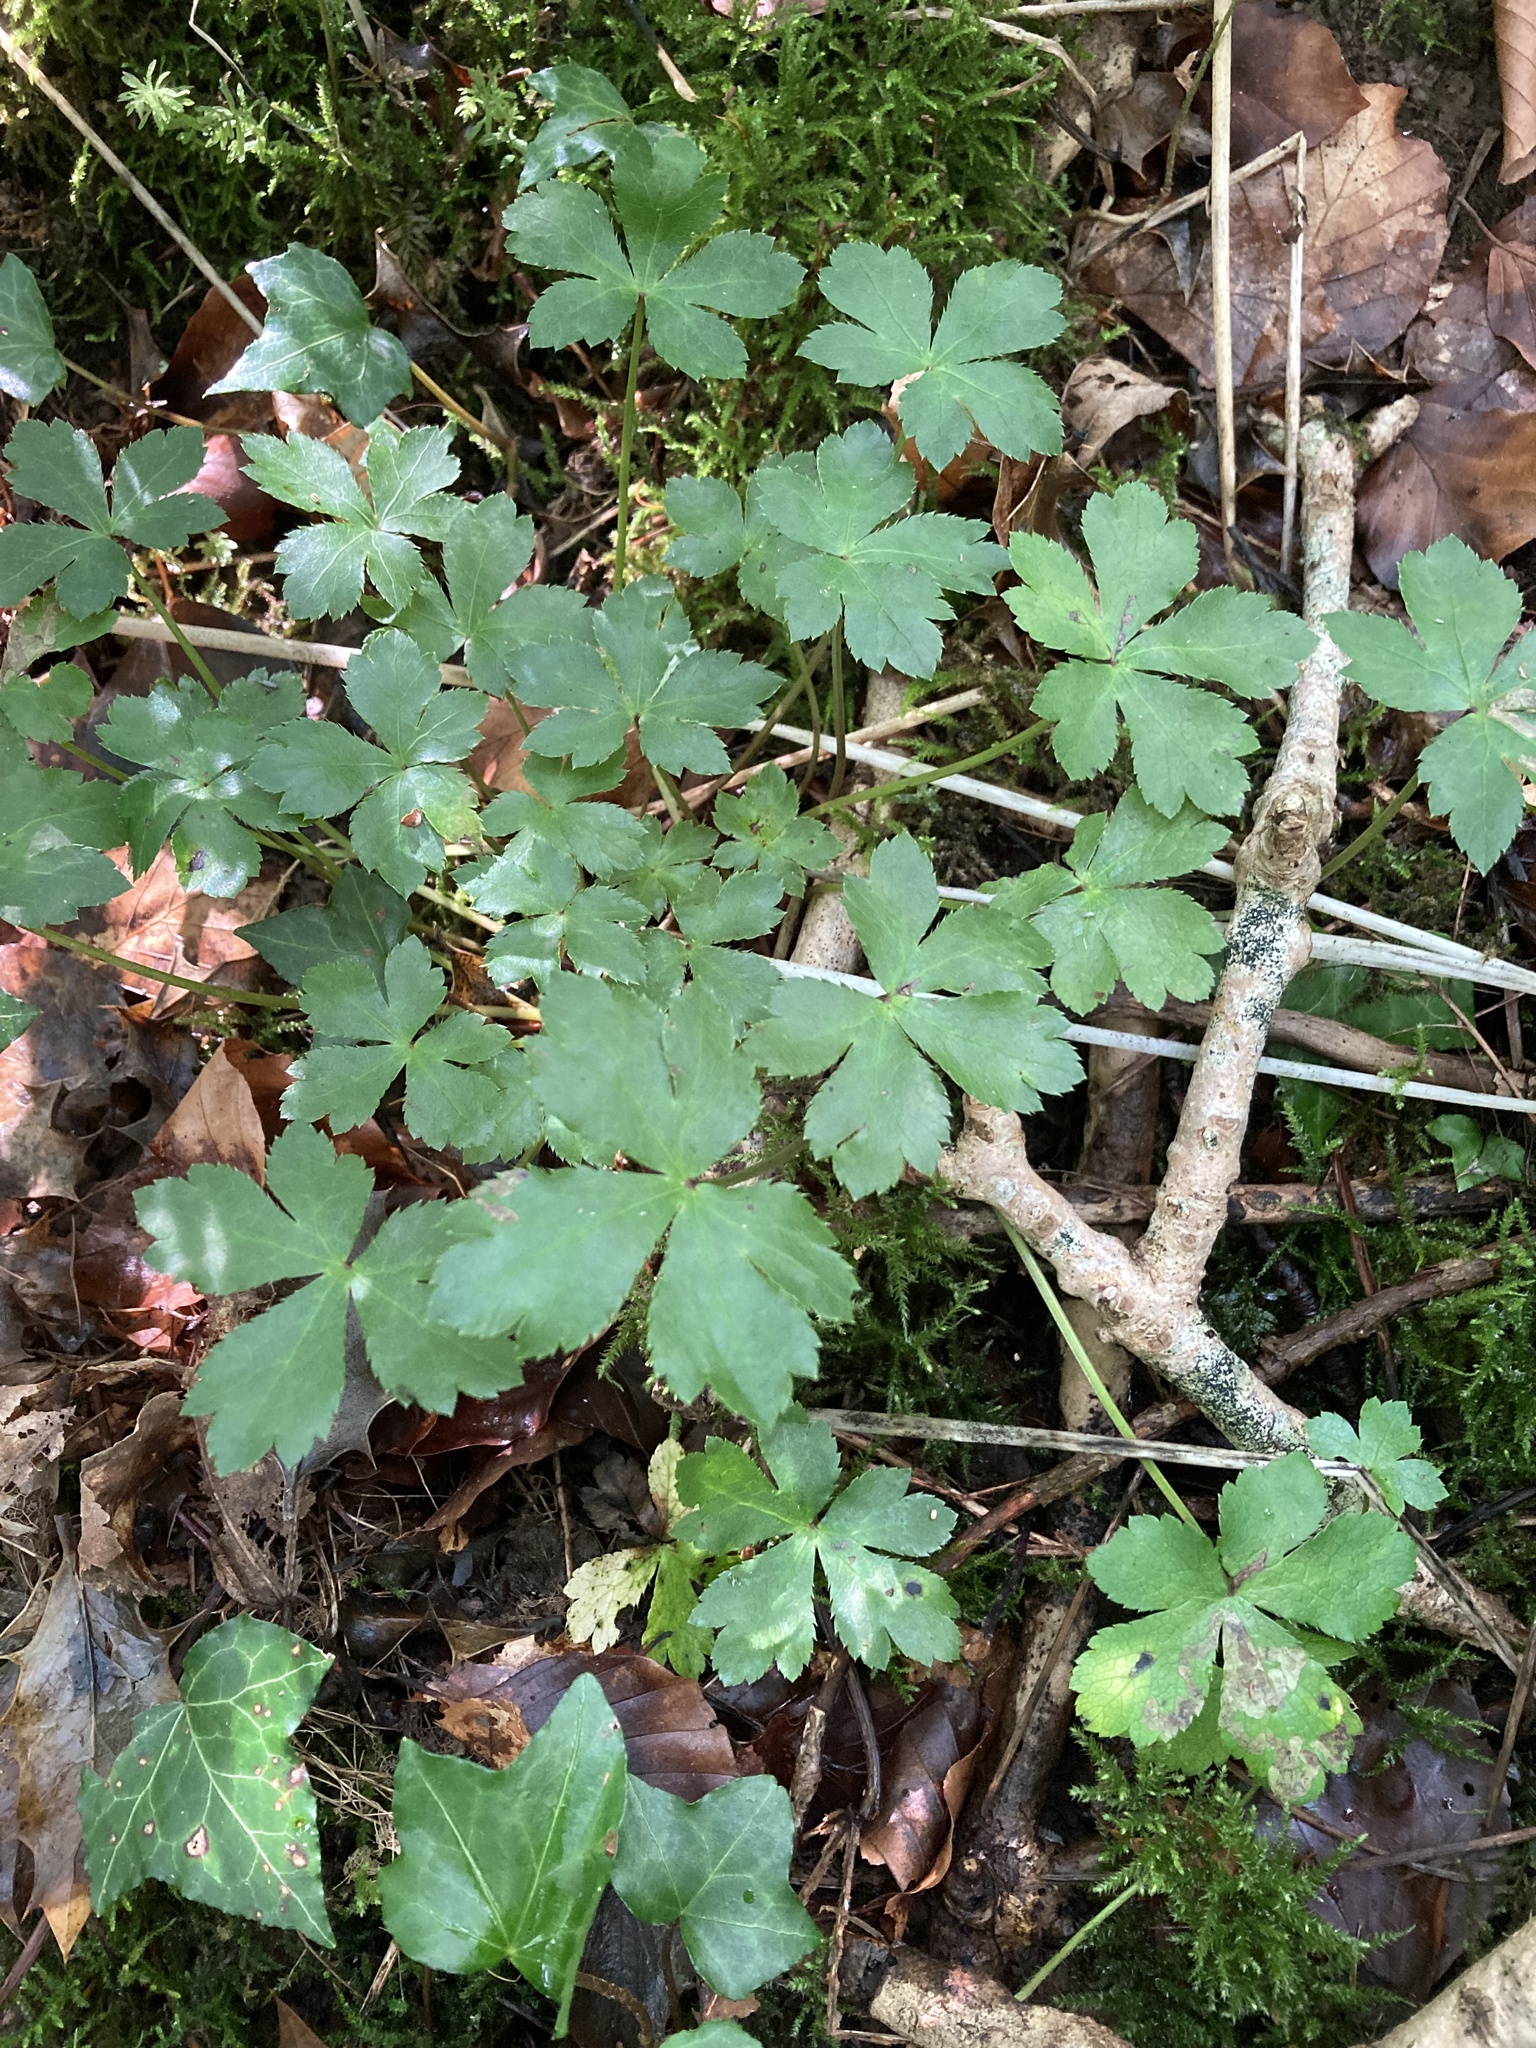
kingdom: Plantae
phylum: Tracheophyta
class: Magnoliopsida
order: Apiales
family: Apiaceae
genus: Sanicula
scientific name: Sanicula europaea
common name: Sanicle
